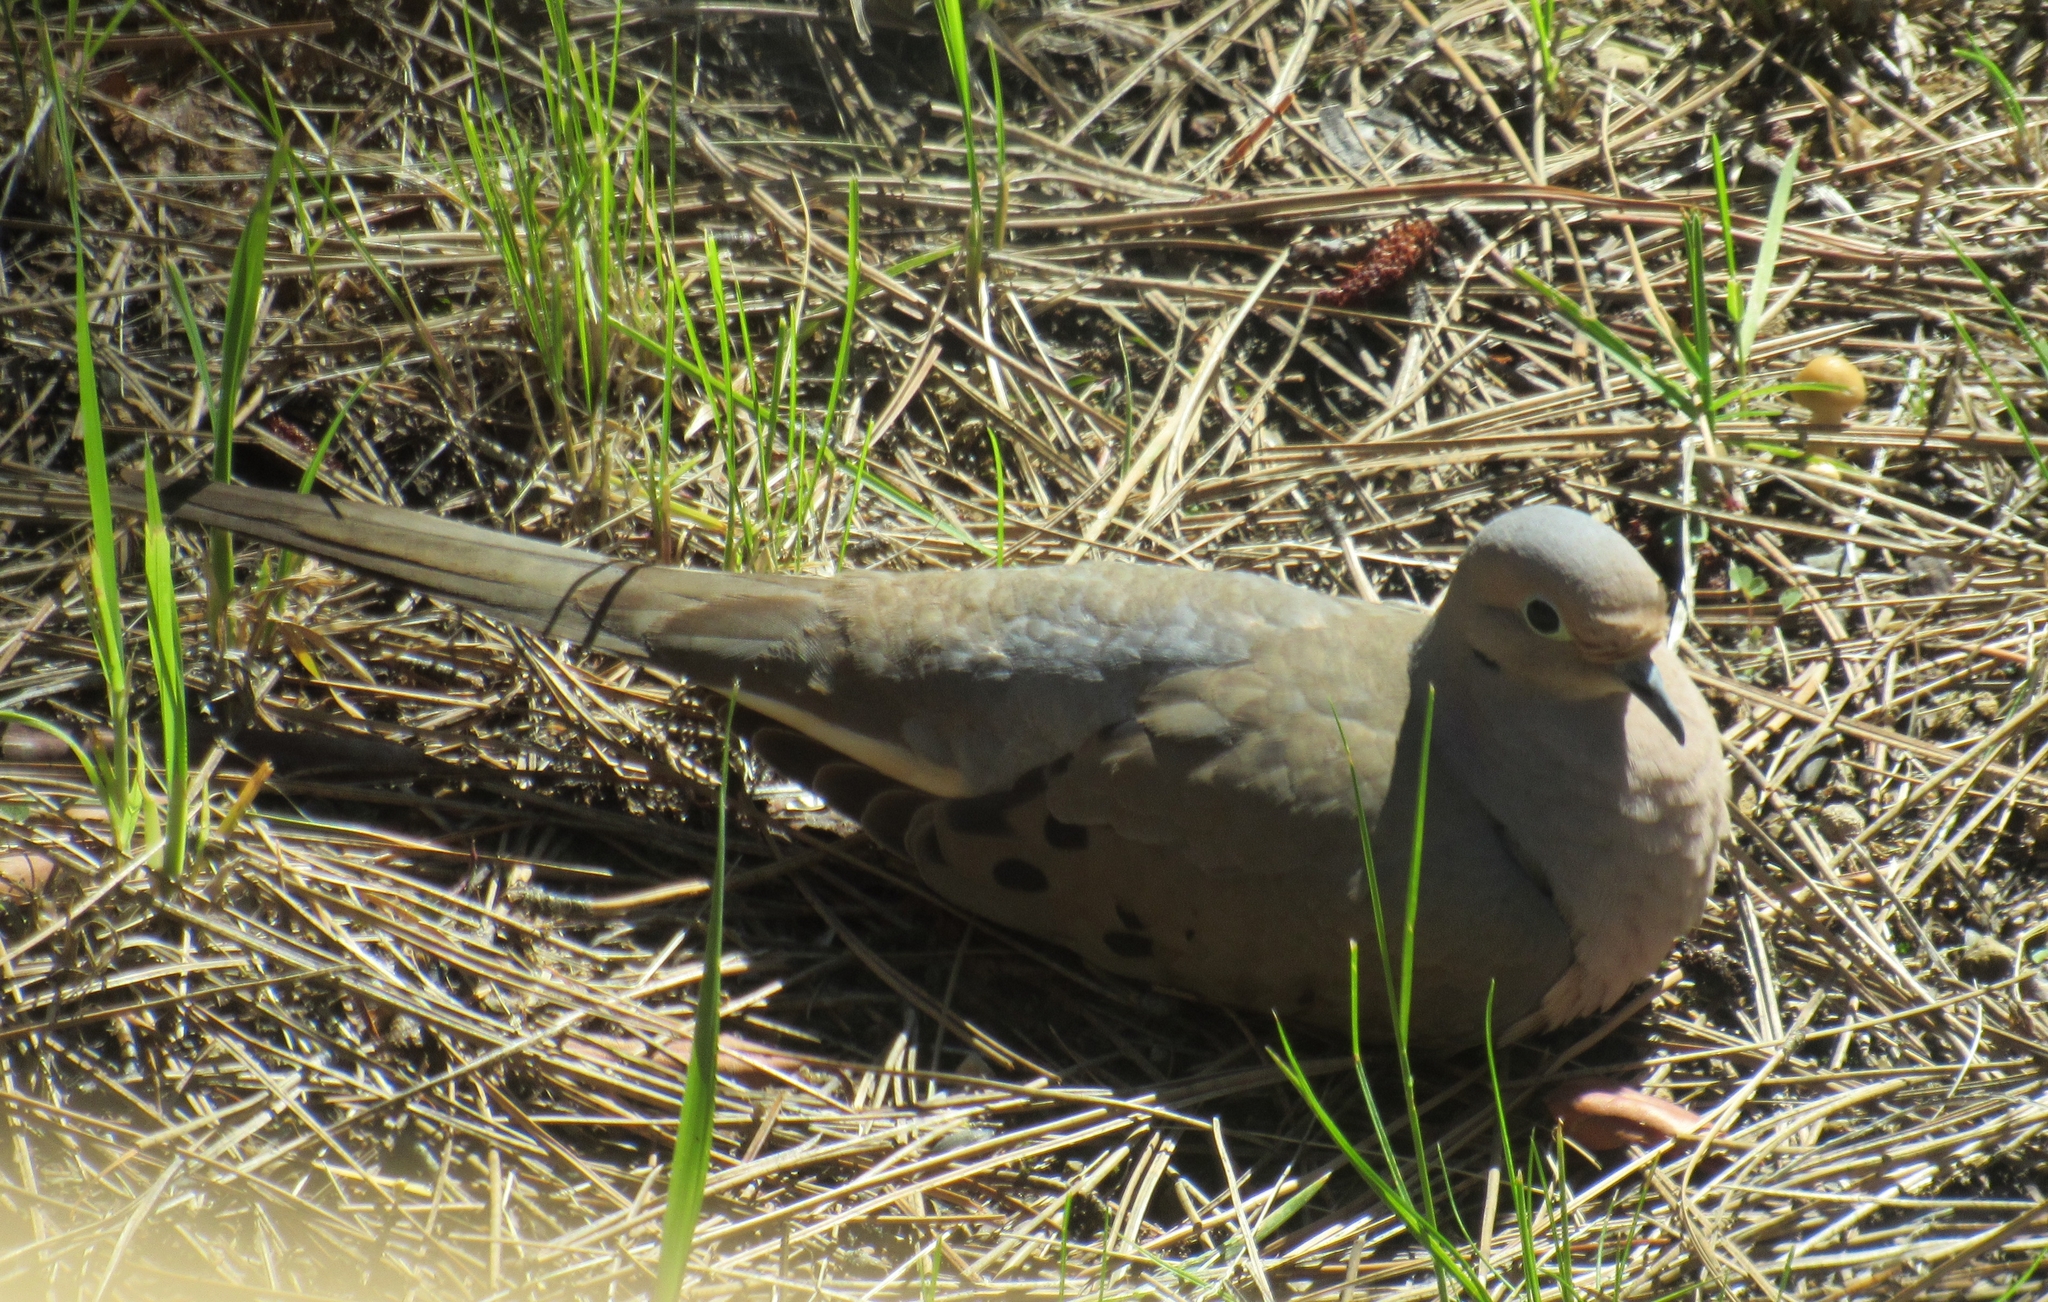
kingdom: Animalia
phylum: Chordata
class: Aves
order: Columbiformes
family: Columbidae
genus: Zenaida
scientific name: Zenaida macroura
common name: Mourning dove
